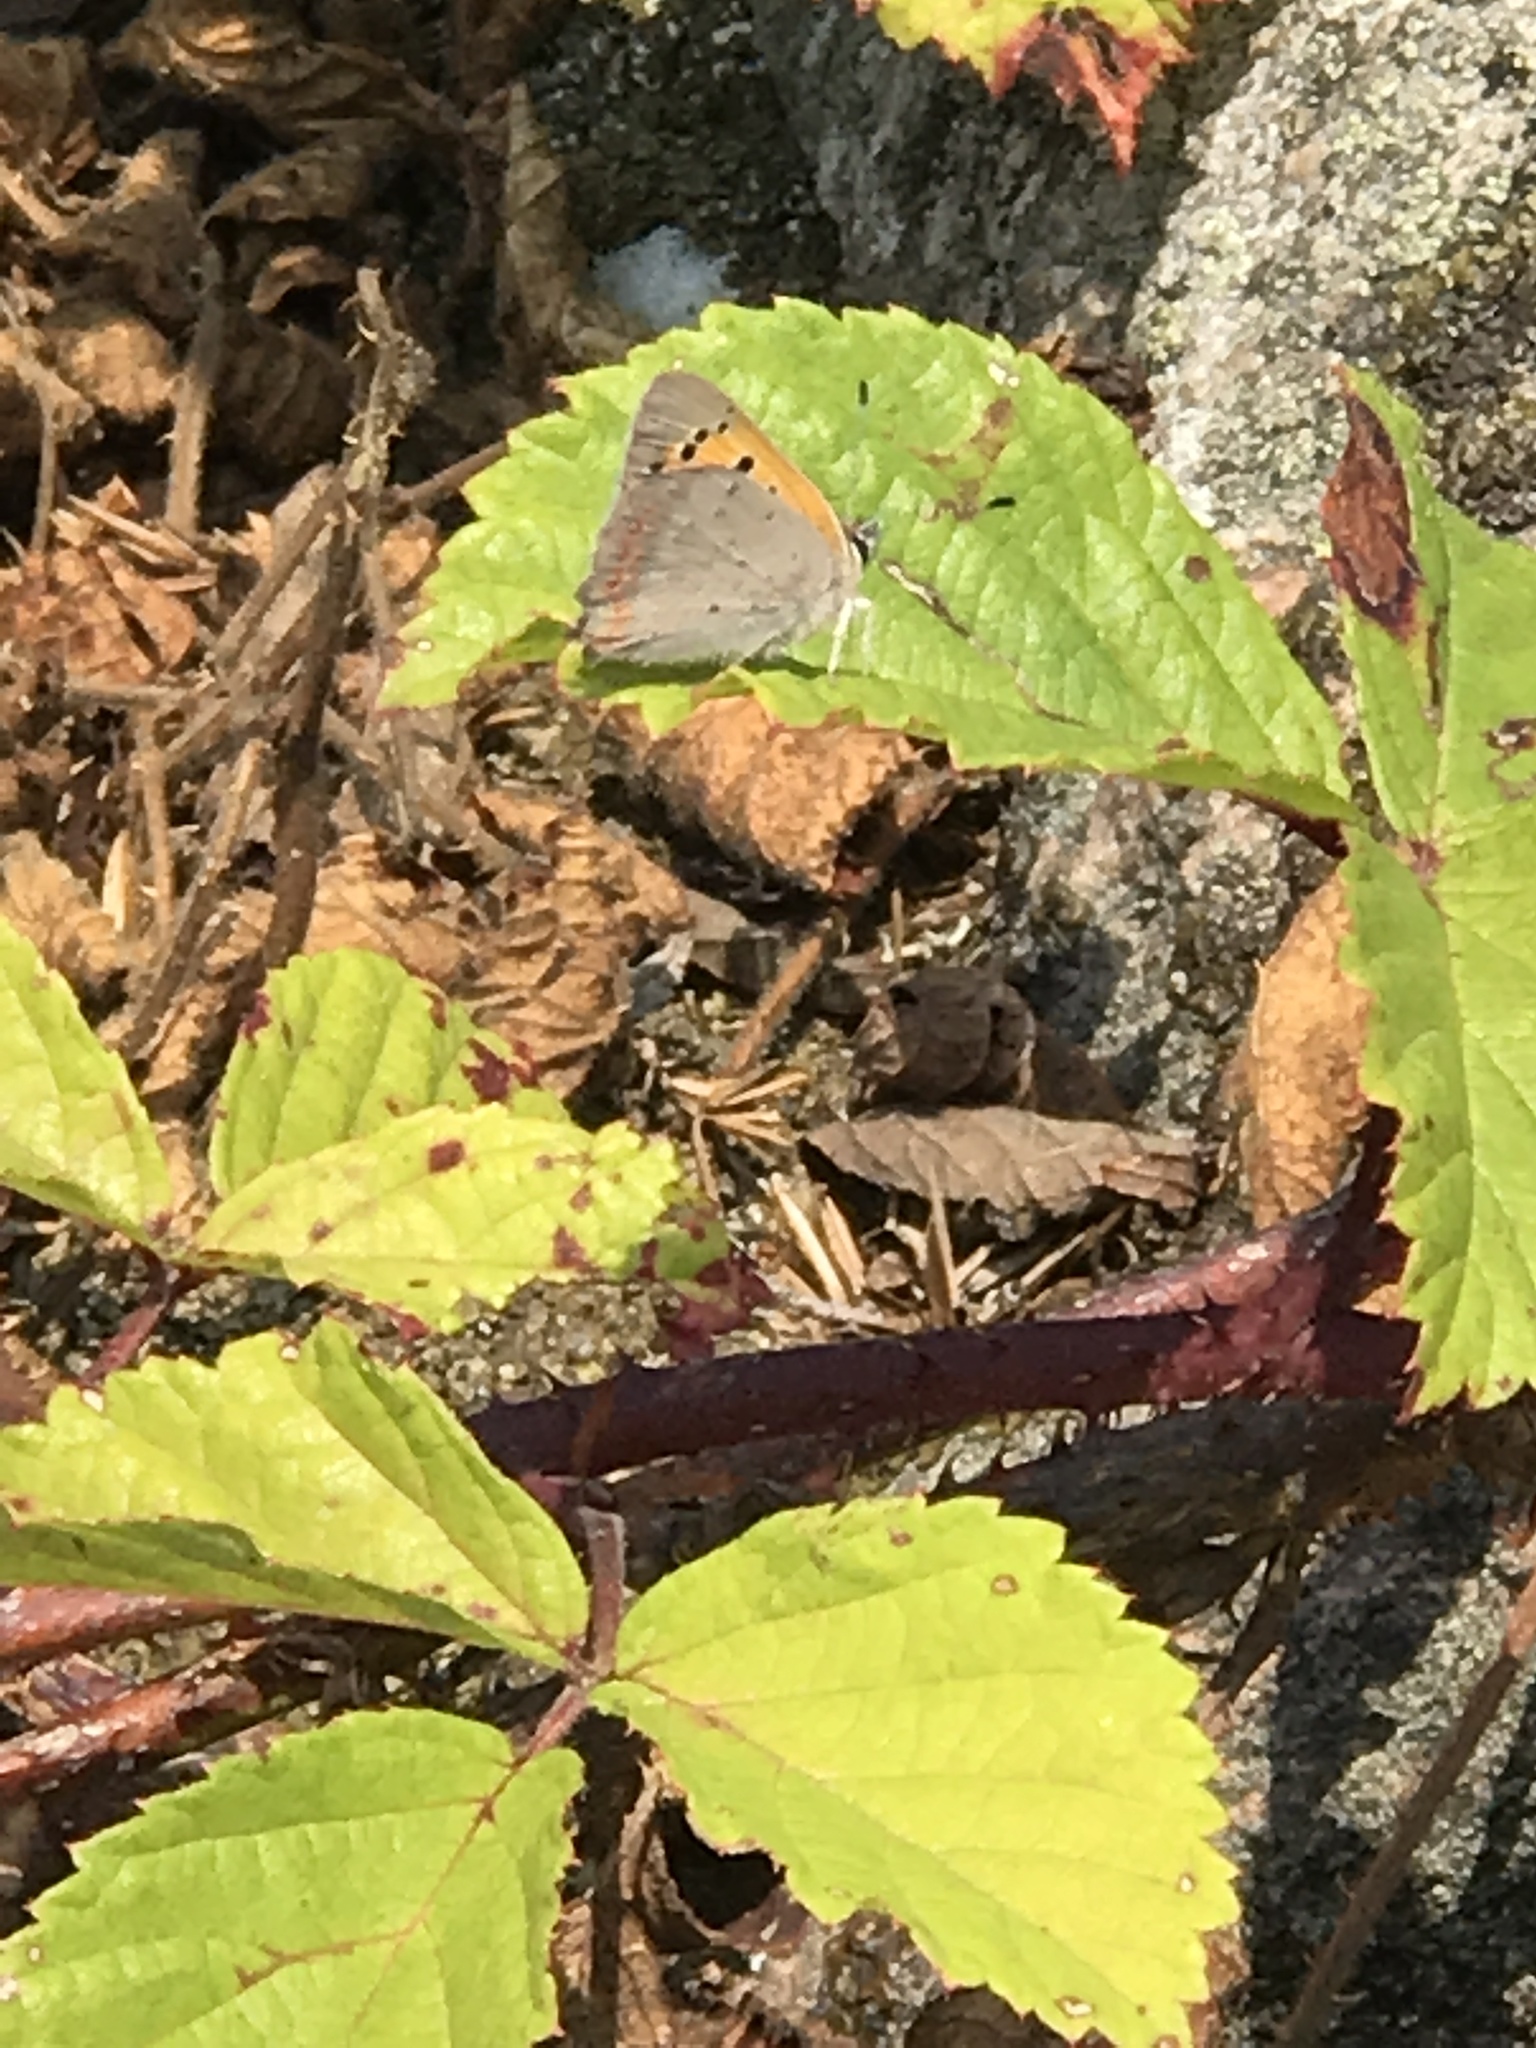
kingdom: Animalia
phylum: Arthropoda
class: Insecta
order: Lepidoptera
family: Lycaenidae
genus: Lycaena
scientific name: Lycaena phlaeas
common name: Small copper
